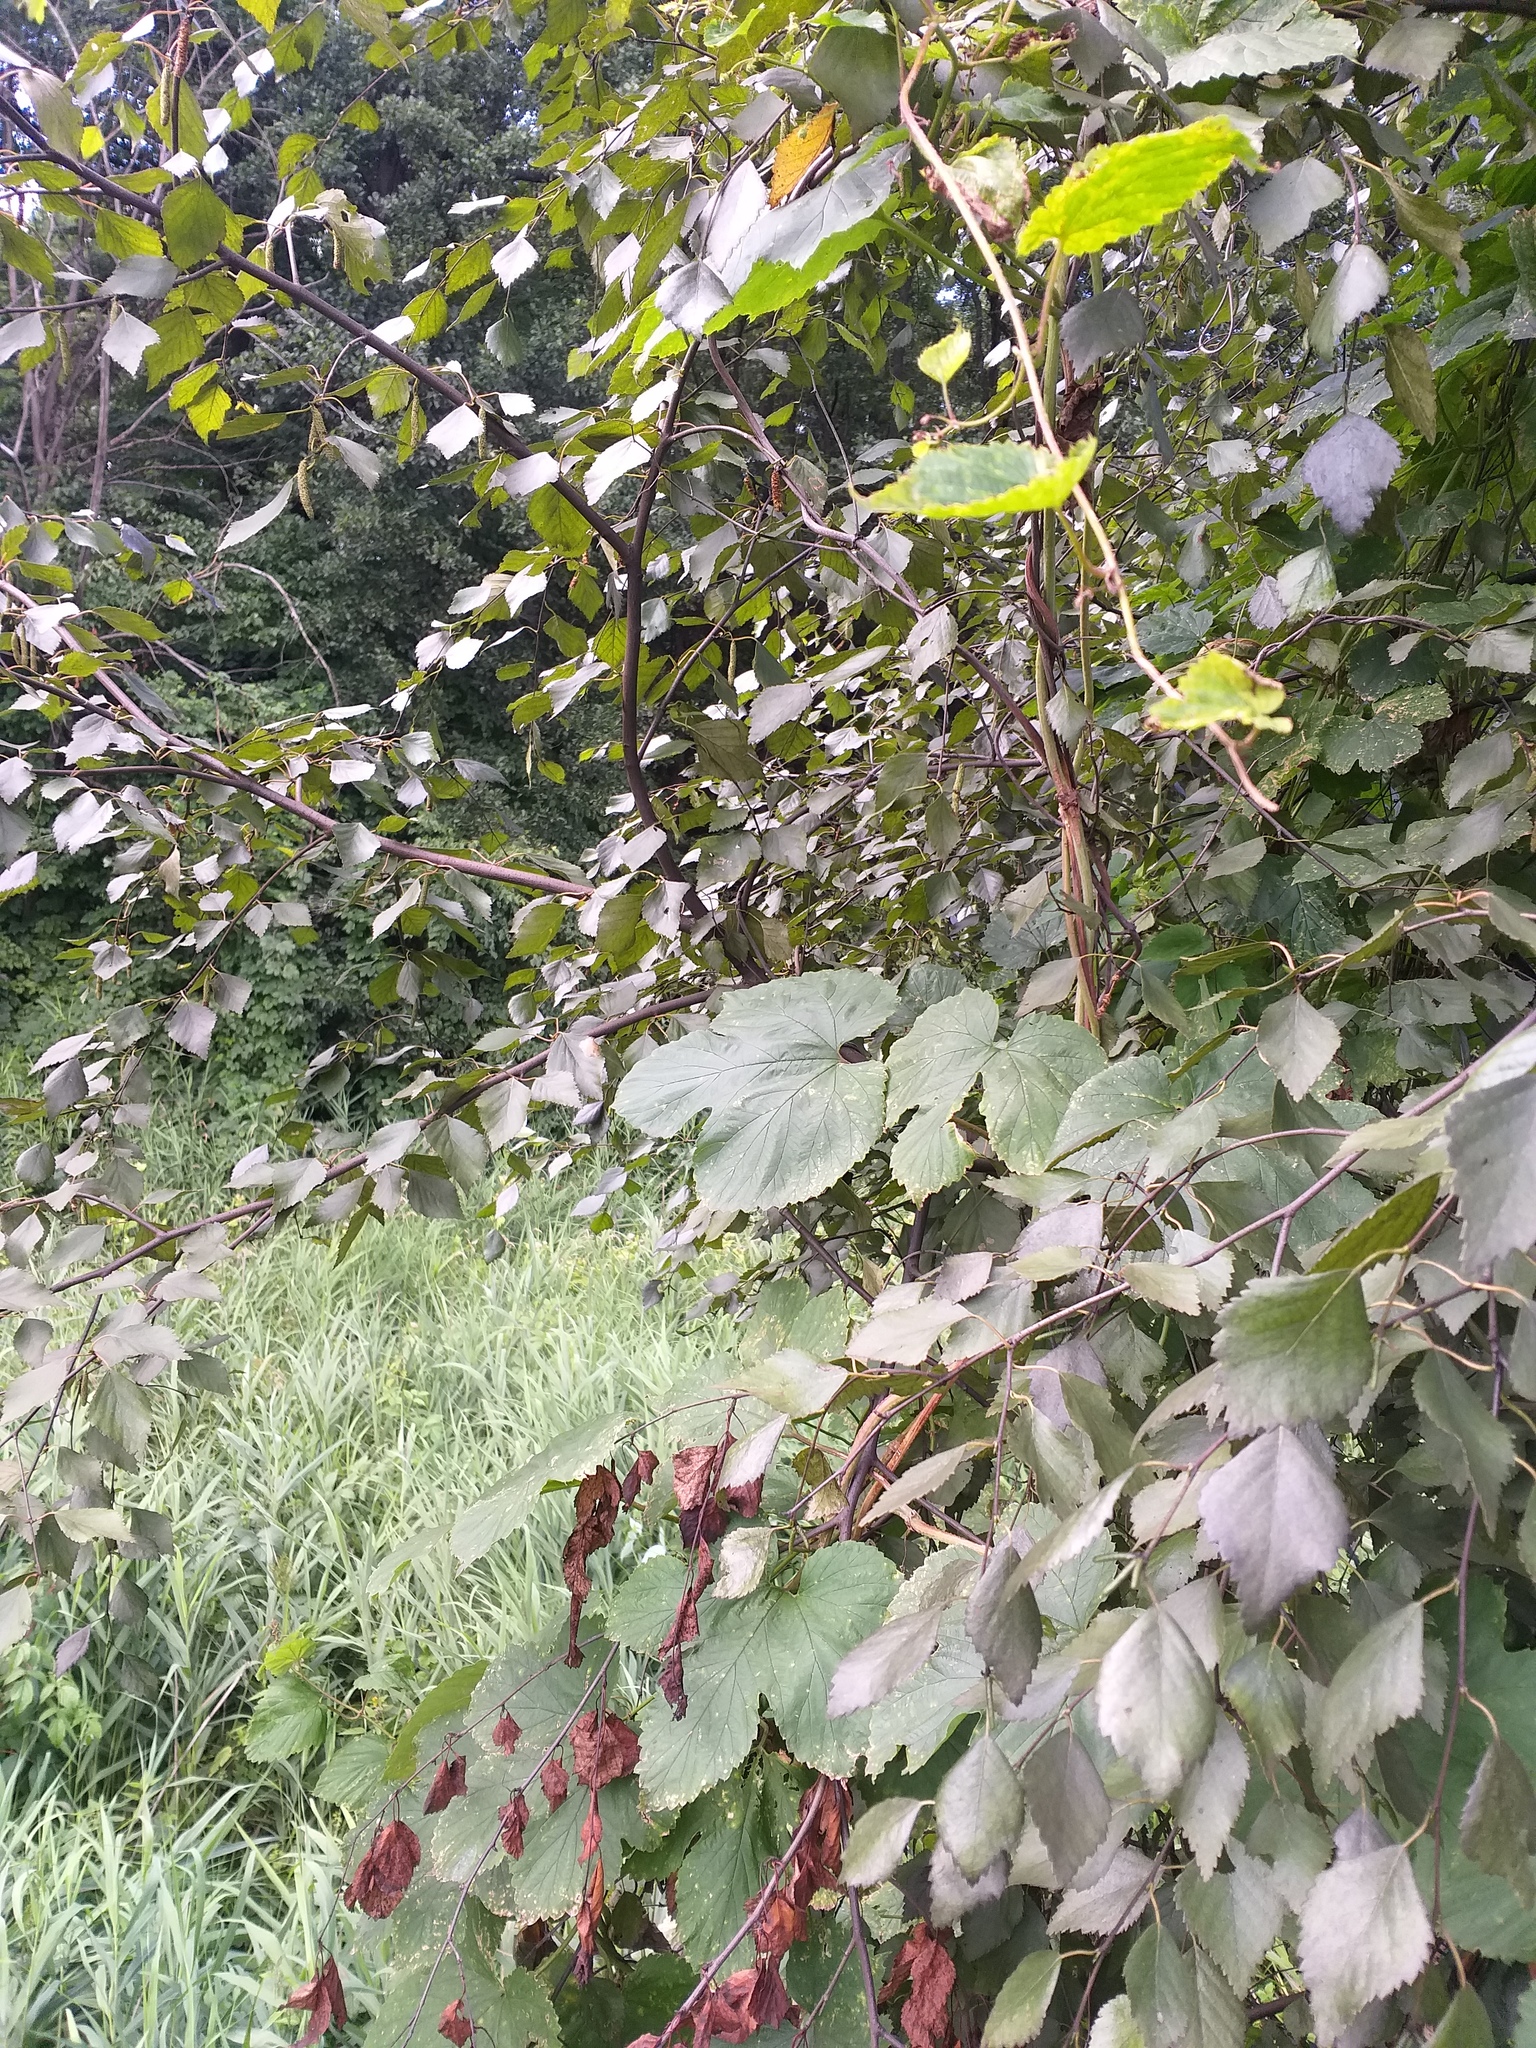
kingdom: Plantae
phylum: Tracheophyta
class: Magnoliopsida
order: Rosales
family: Cannabaceae
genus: Humulus
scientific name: Humulus lupulus
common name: Hop
